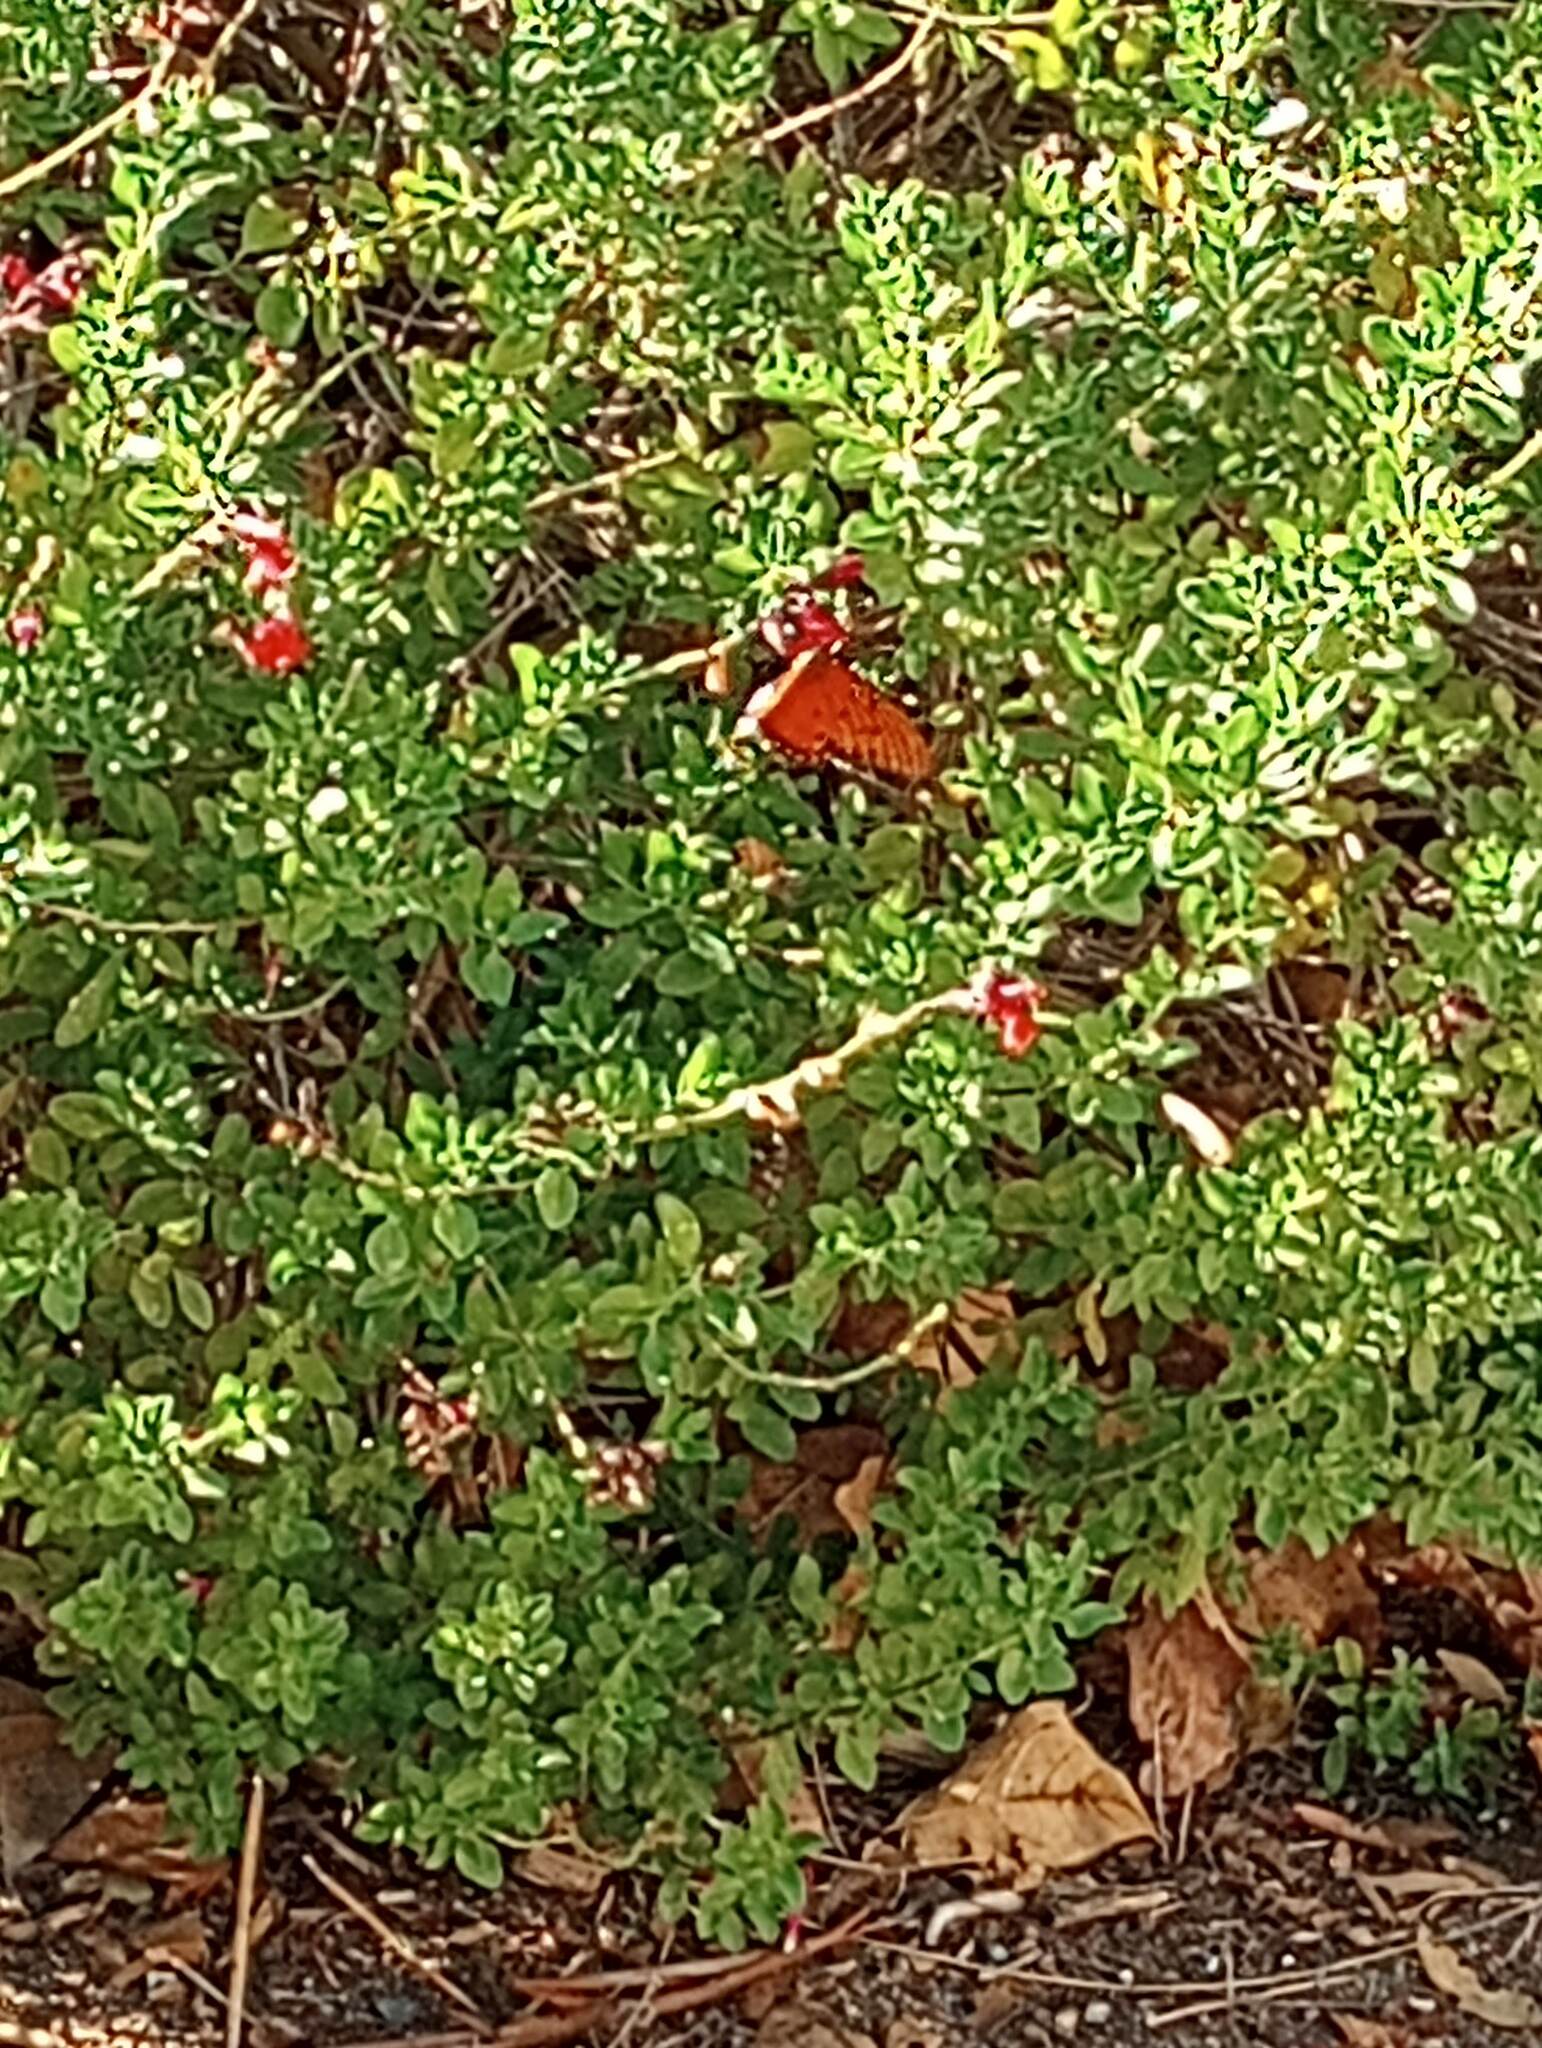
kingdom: Animalia
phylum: Arthropoda
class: Insecta
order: Lepidoptera
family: Nymphalidae
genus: Dione
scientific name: Dione vanillae
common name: Gulf fritillary
